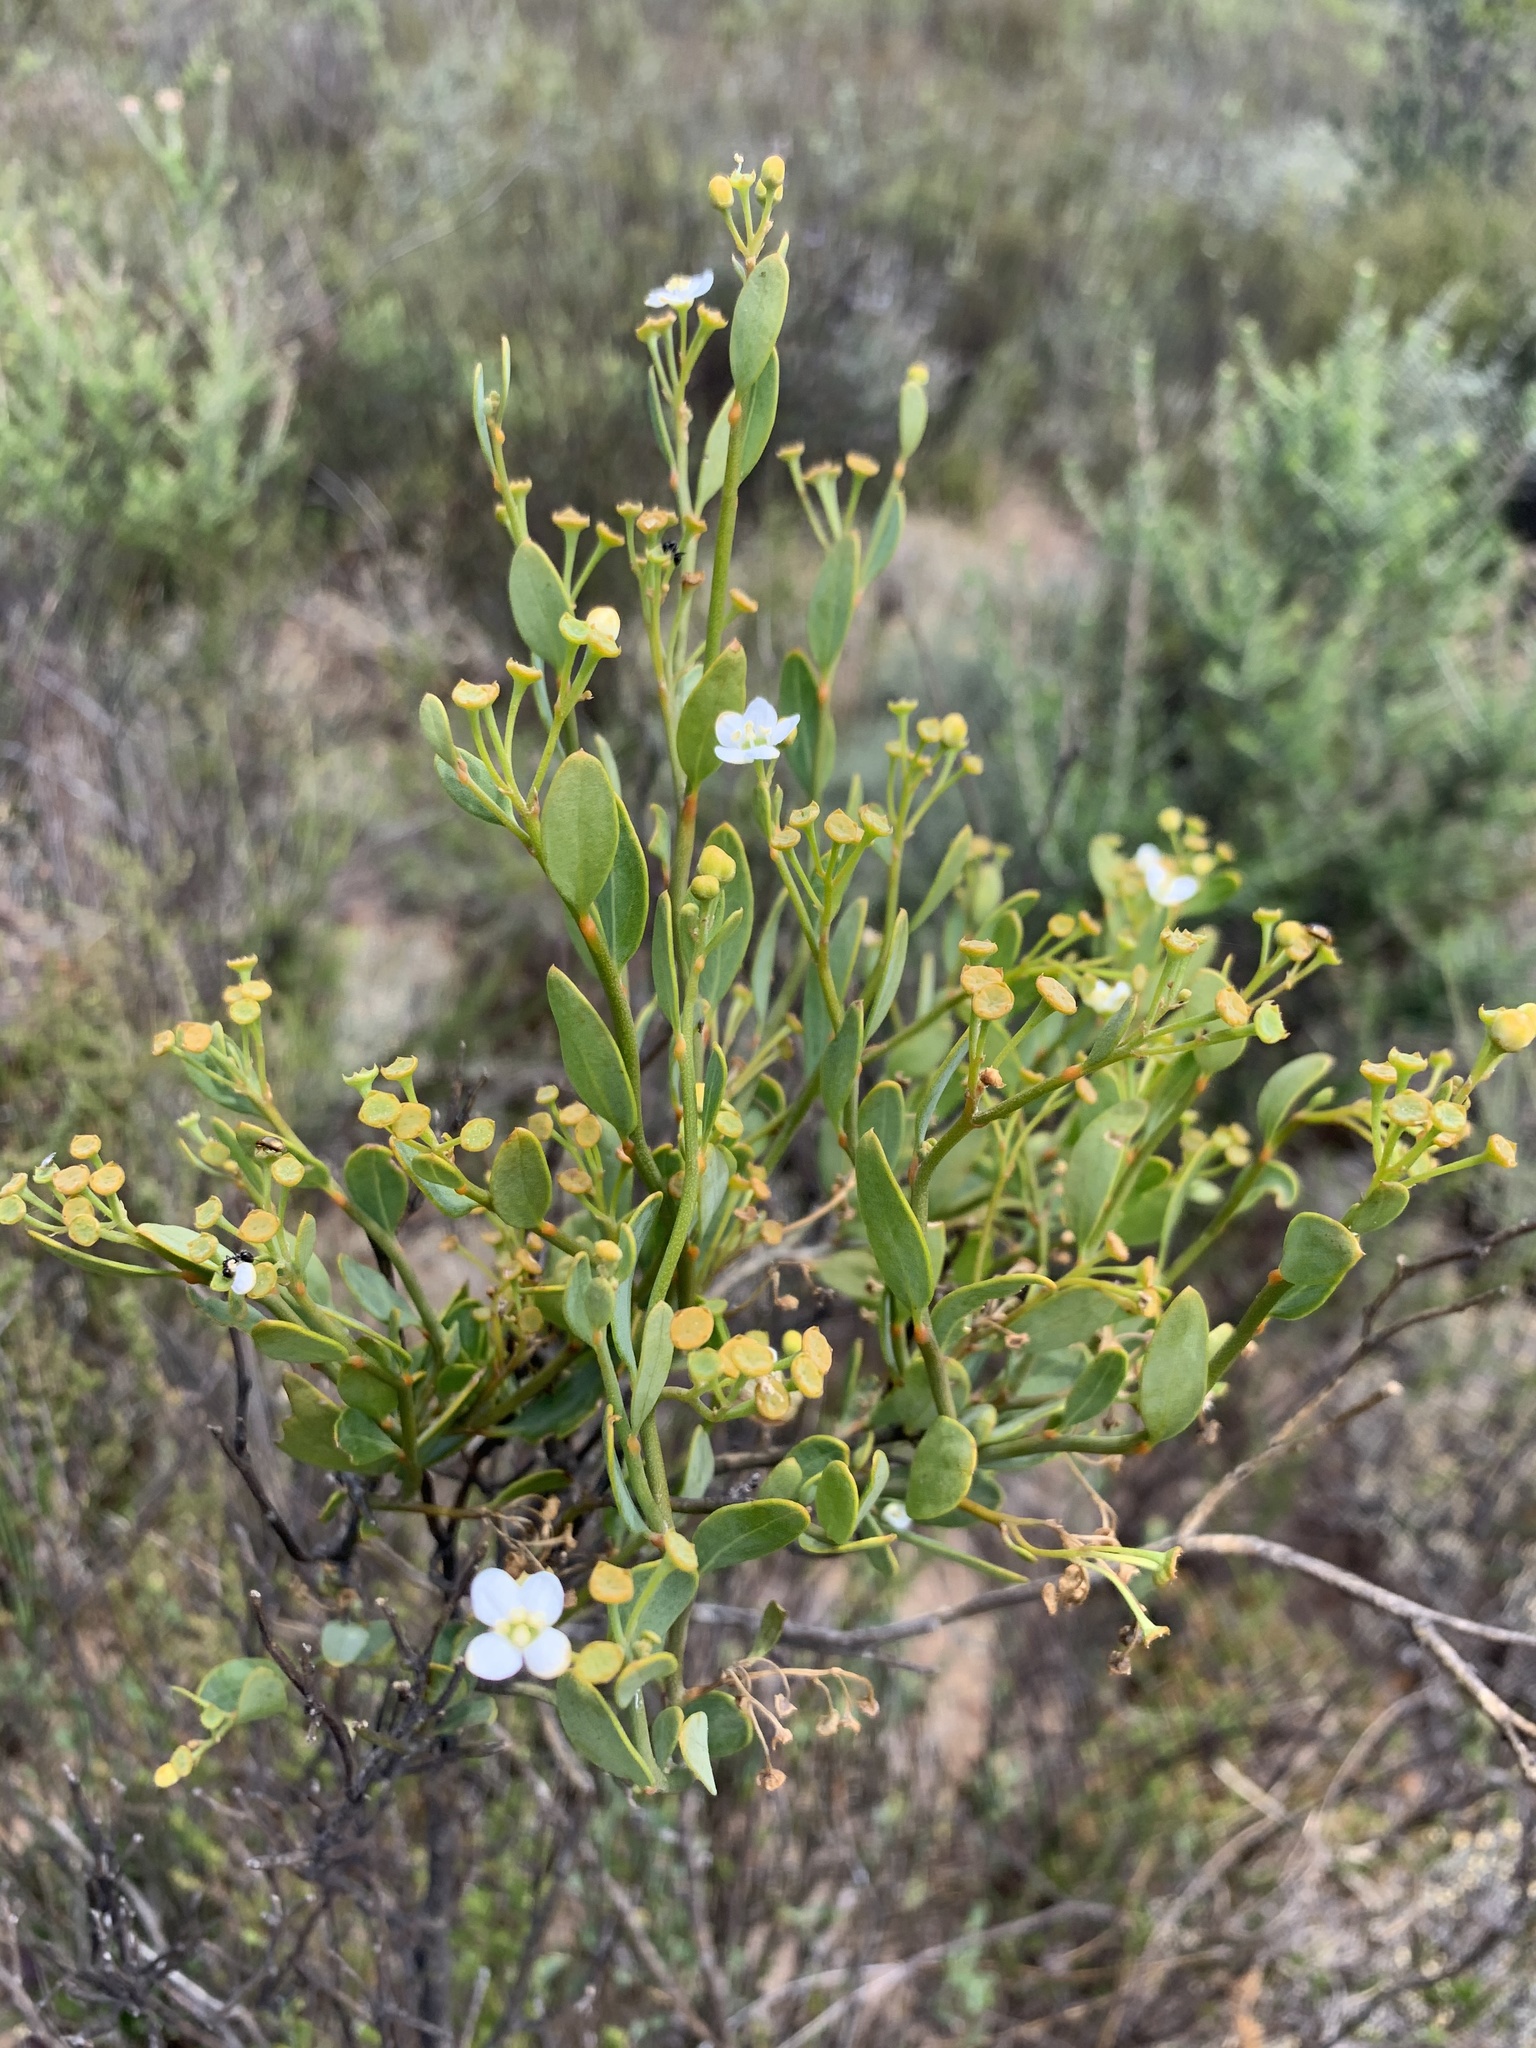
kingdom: Plantae
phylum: Tracheophyta
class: Magnoliopsida
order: Solanales
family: Montiniaceae
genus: Montinia
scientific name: Montinia caryophyllacea
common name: Wild clove-bush
